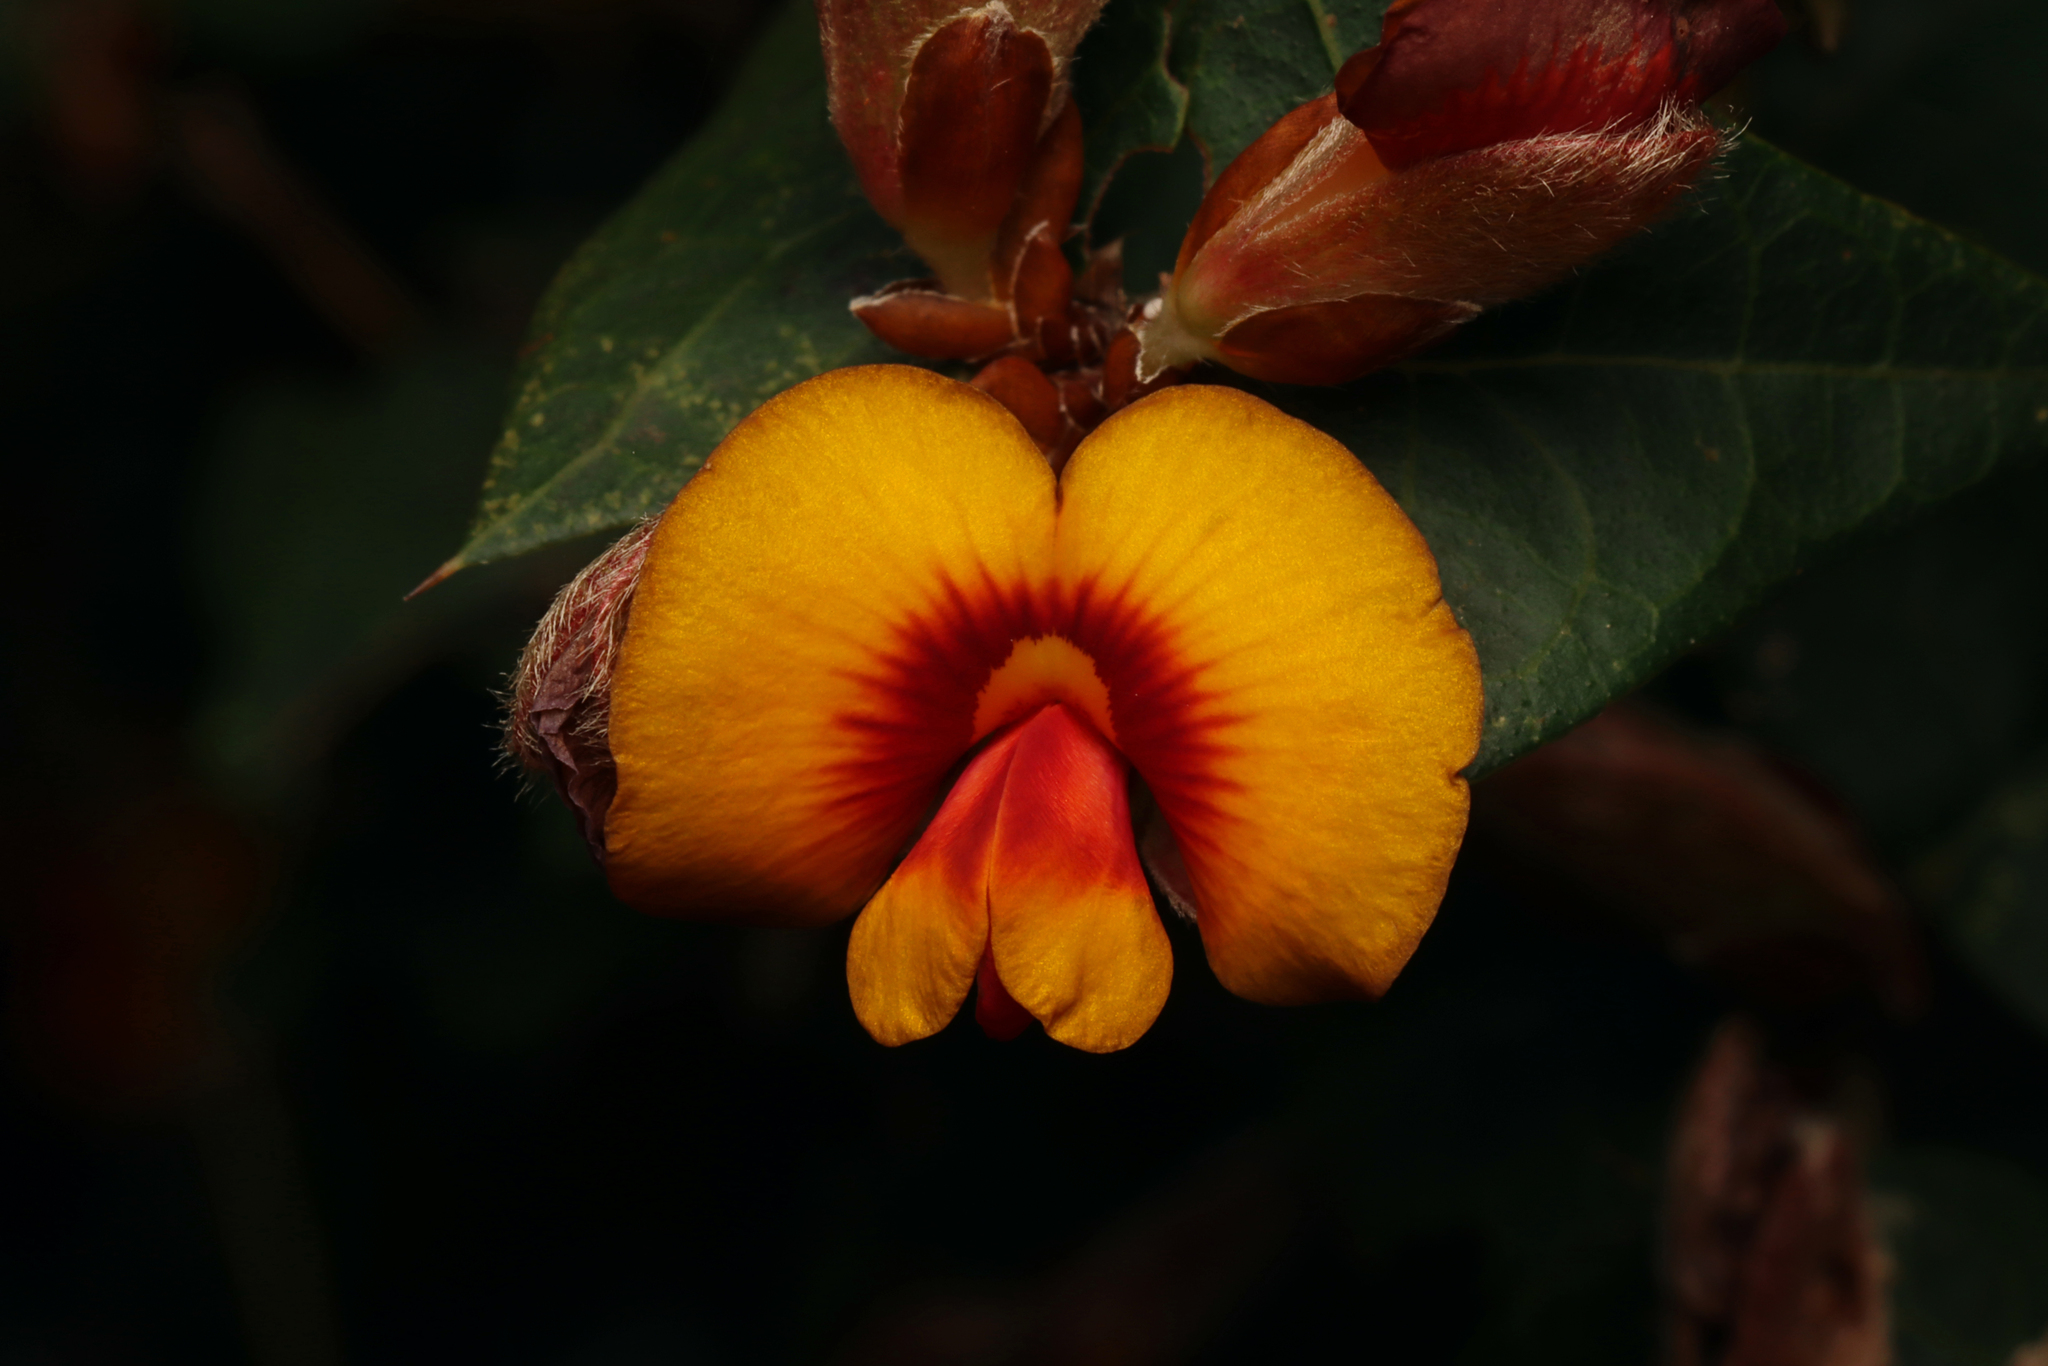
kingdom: Plantae
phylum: Tracheophyta
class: Magnoliopsida
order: Fabales
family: Fabaceae
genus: Platylobium
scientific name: Platylobium obtusangulum
